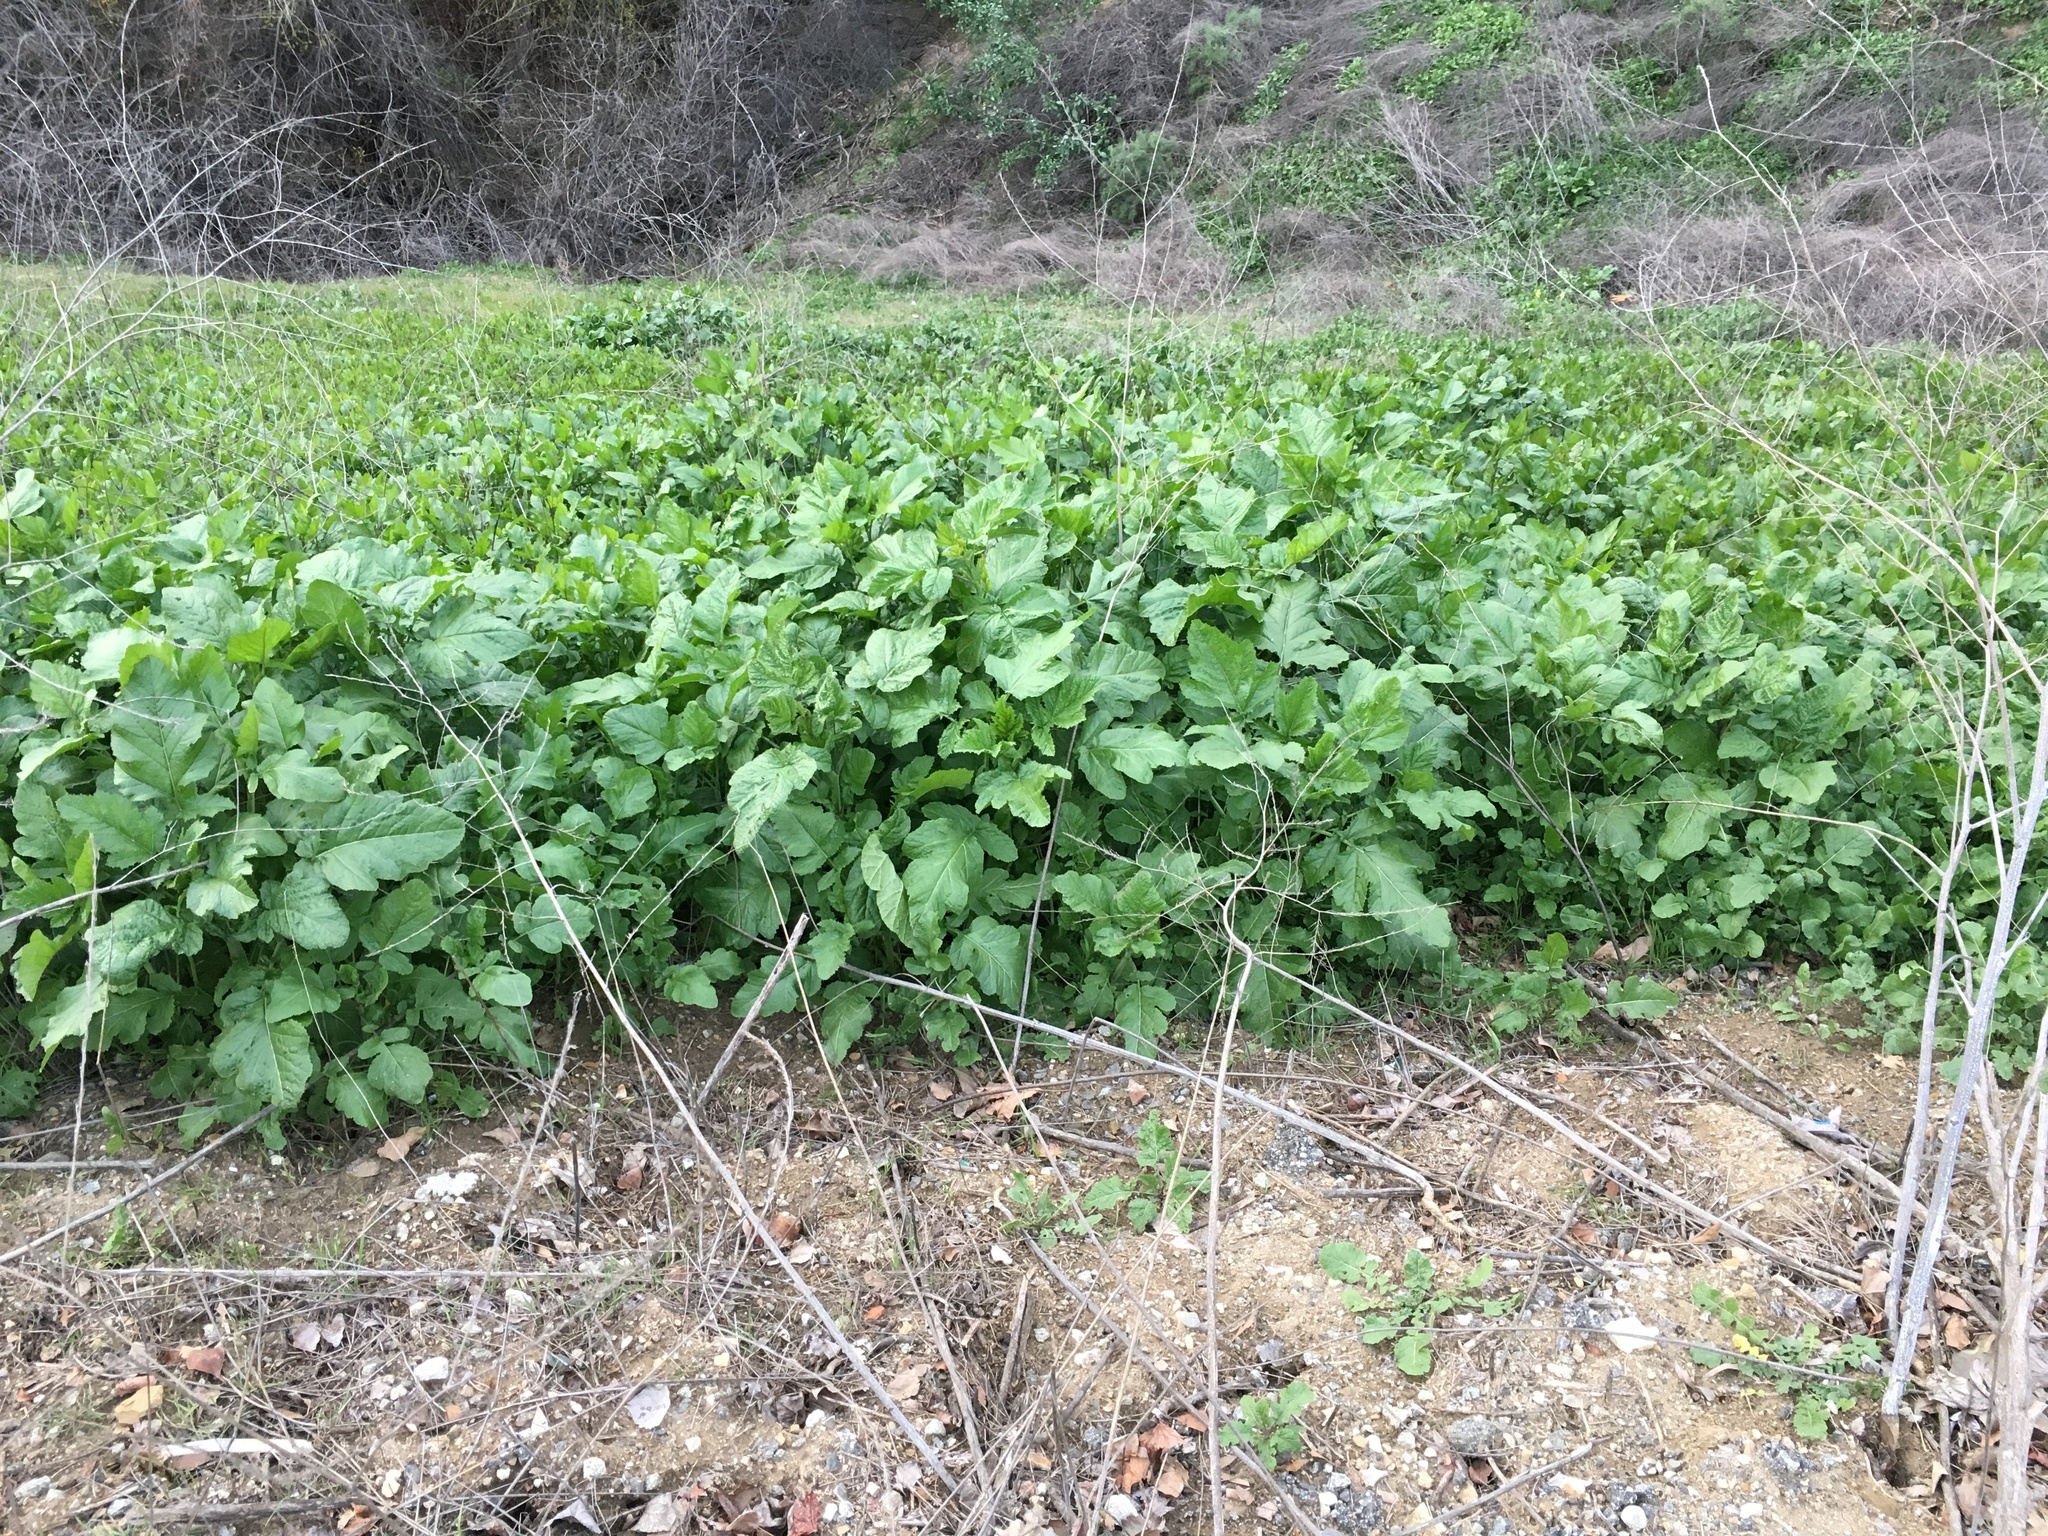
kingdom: Plantae
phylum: Tracheophyta
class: Magnoliopsida
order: Brassicales
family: Brassicaceae
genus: Brassica
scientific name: Brassica nigra
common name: Black mustard
